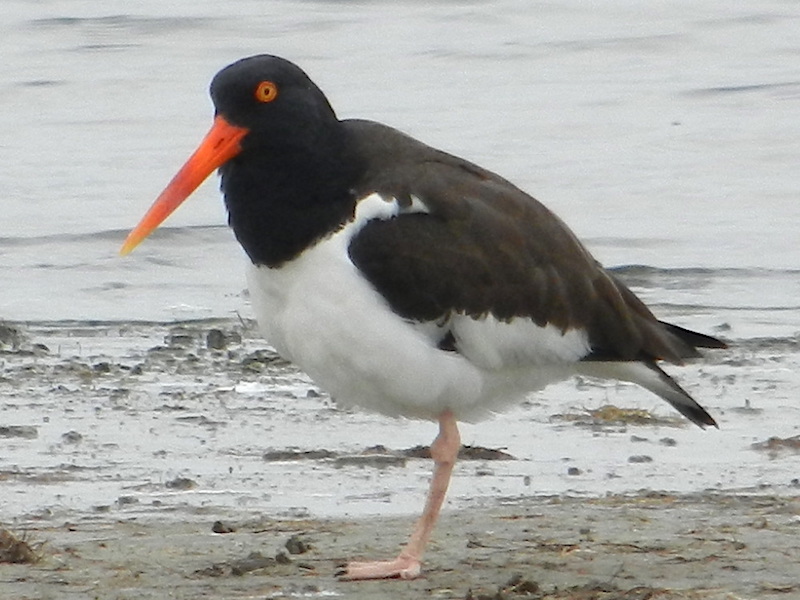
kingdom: Animalia
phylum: Chordata
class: Aves
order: Charadriiformes
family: Haematopodidae
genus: Haematopus
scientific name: Haematopus palliatus
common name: American oystercatcher
